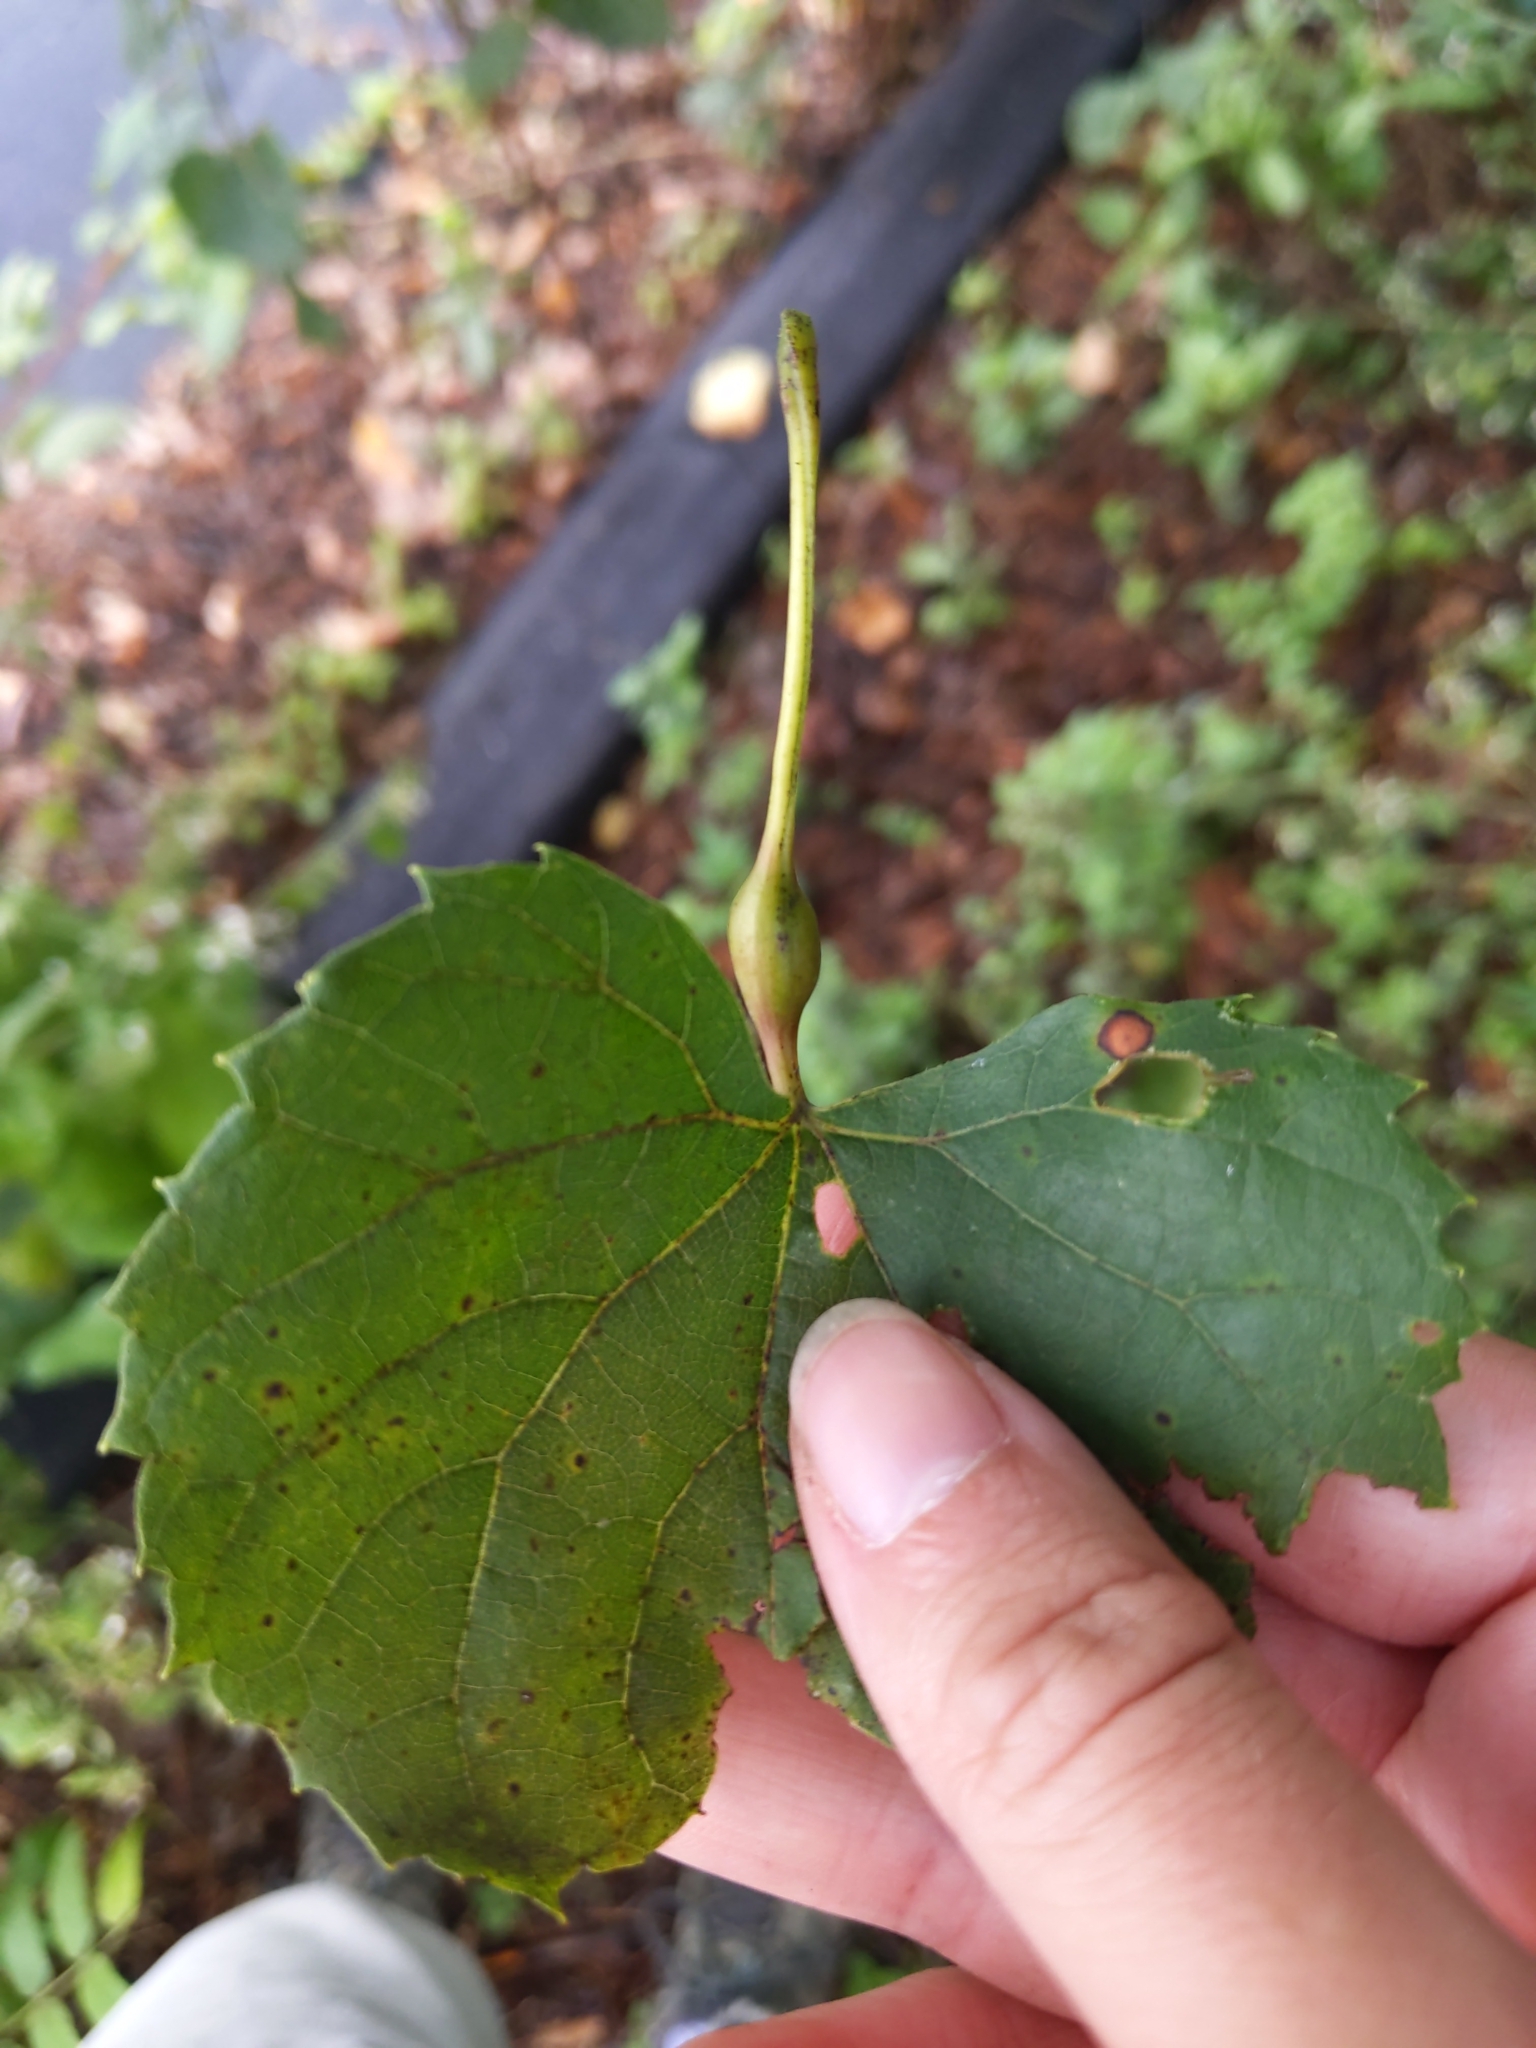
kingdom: Animalia
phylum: Arthropoda
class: Insecta
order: Diptera
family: Cecidomyiidae
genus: Neolasioptera
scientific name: Neolasioptera vitinea
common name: Grape leaf petiole gall
